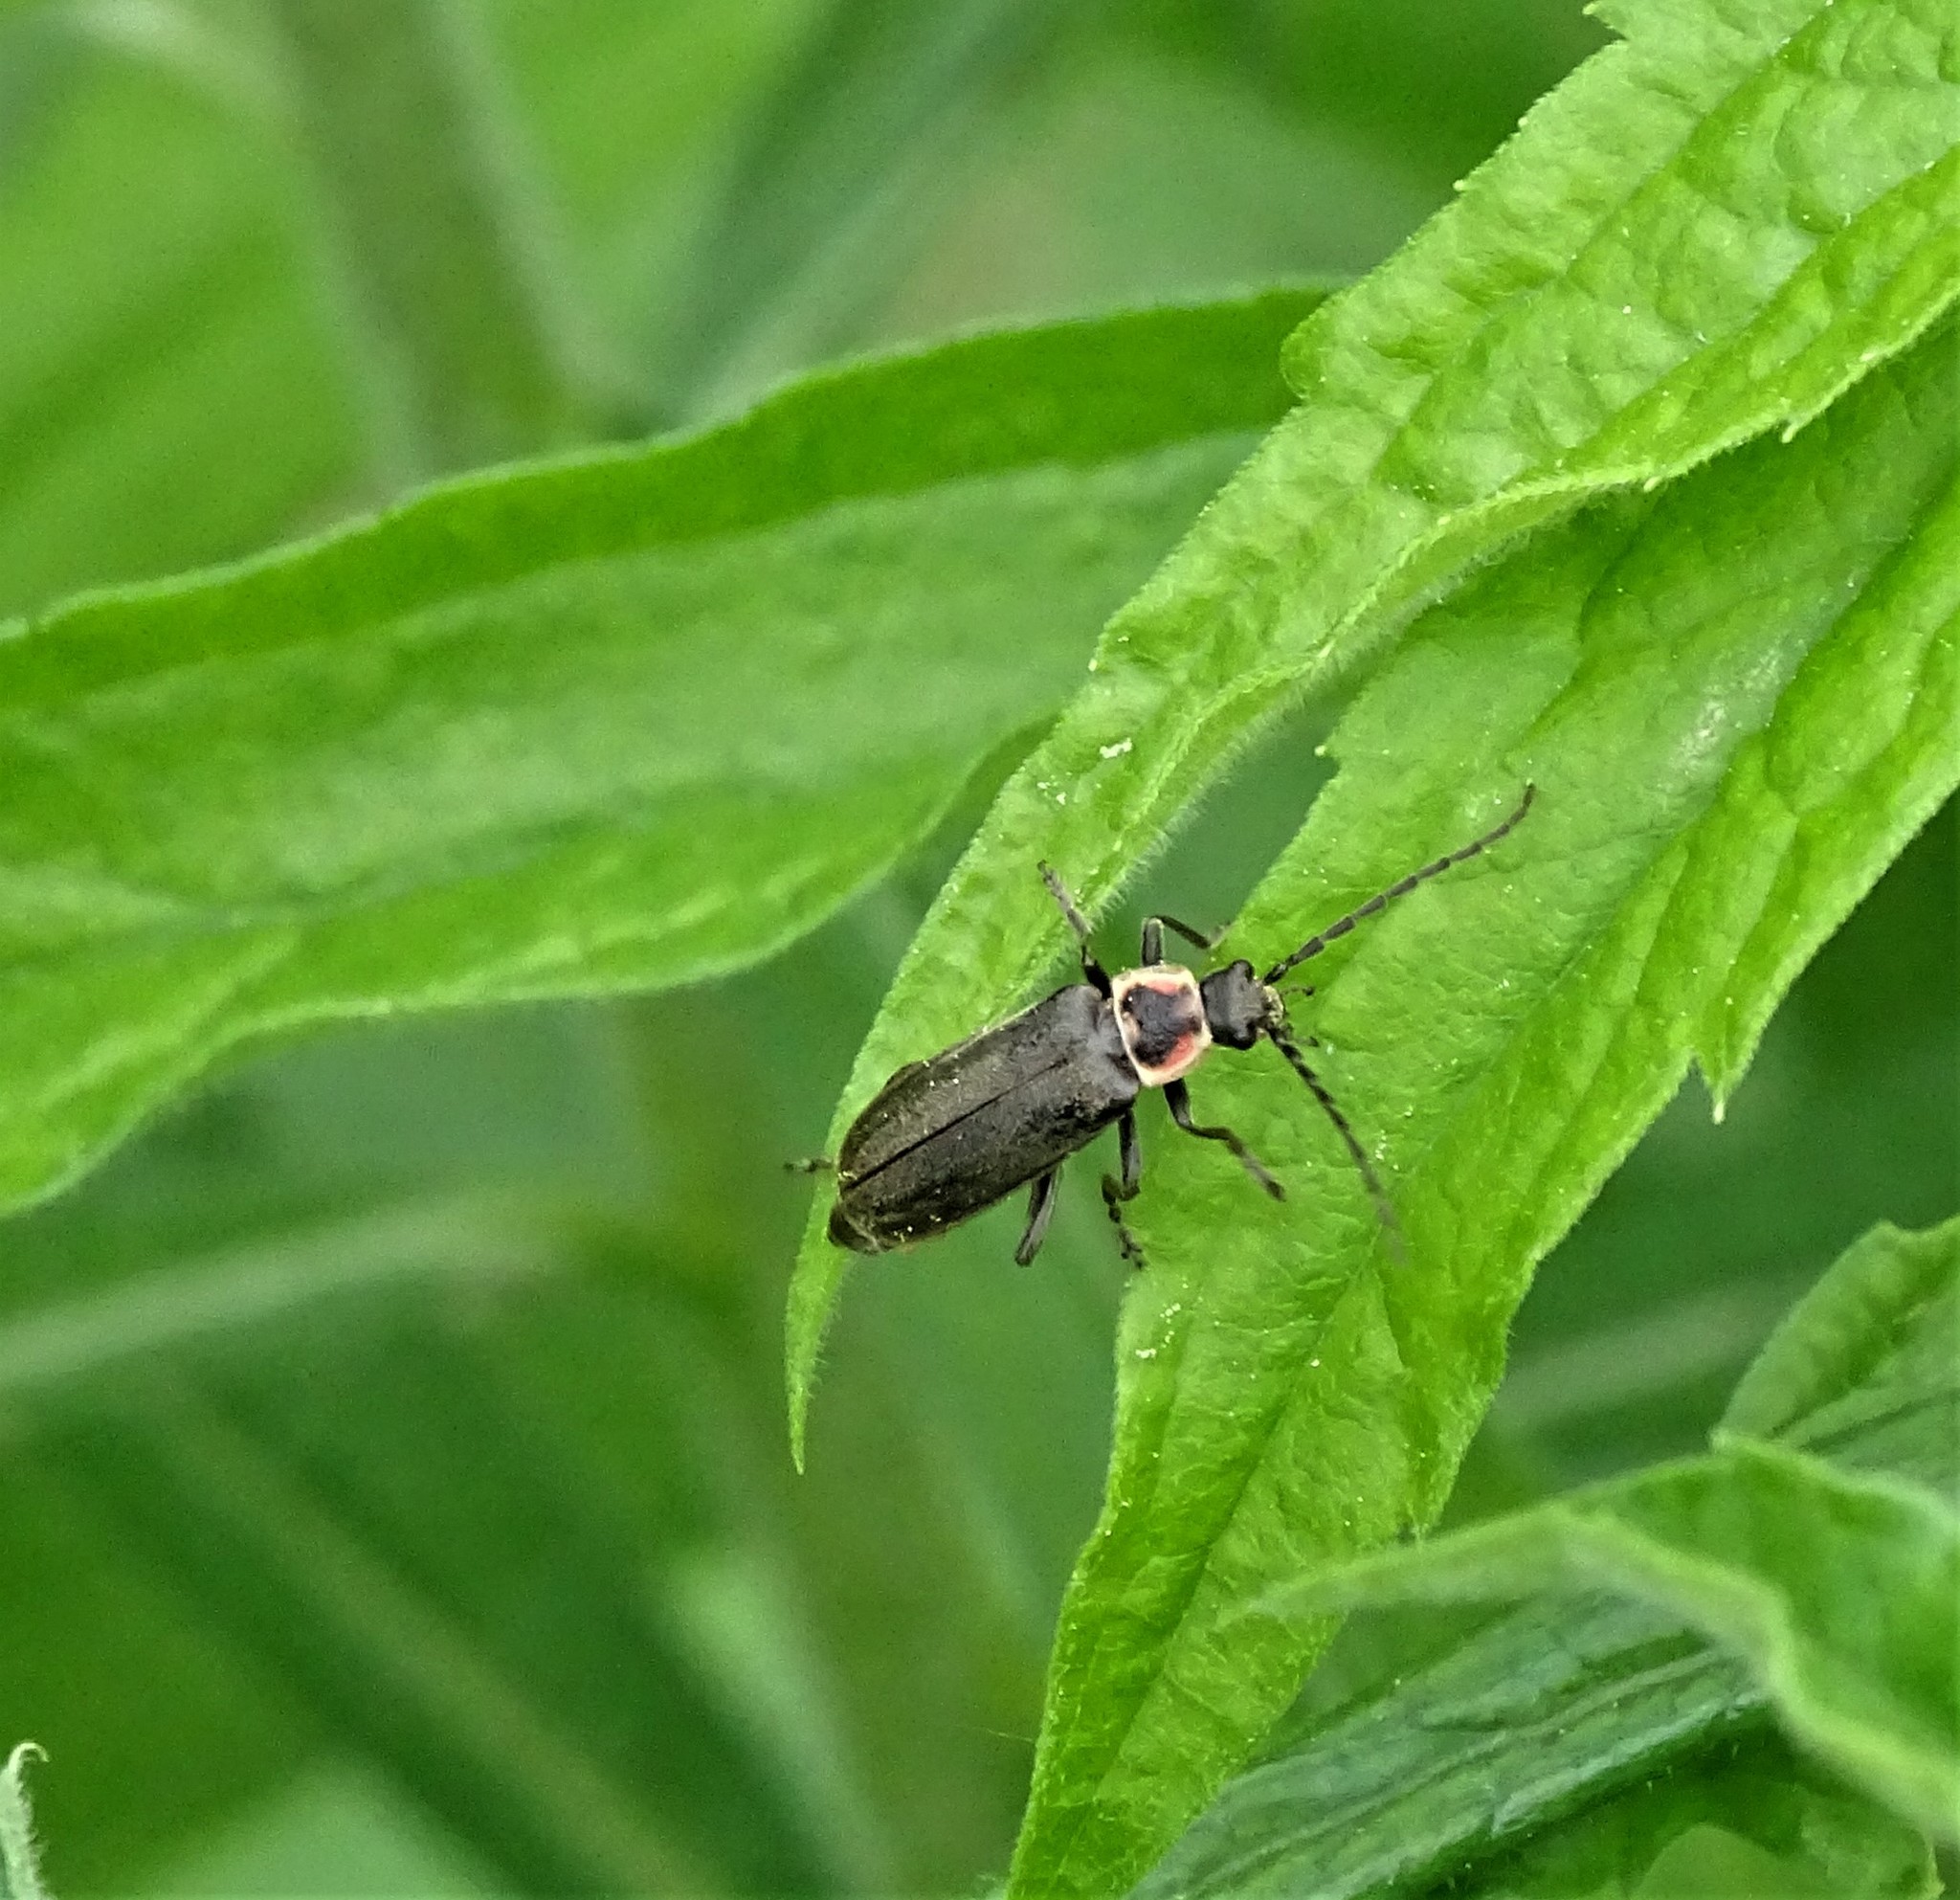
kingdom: Animalia
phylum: Arthropoda
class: Insecta
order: Coleoptera
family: Cantharidae
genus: Atalantycha
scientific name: Atalantycha dentigera
